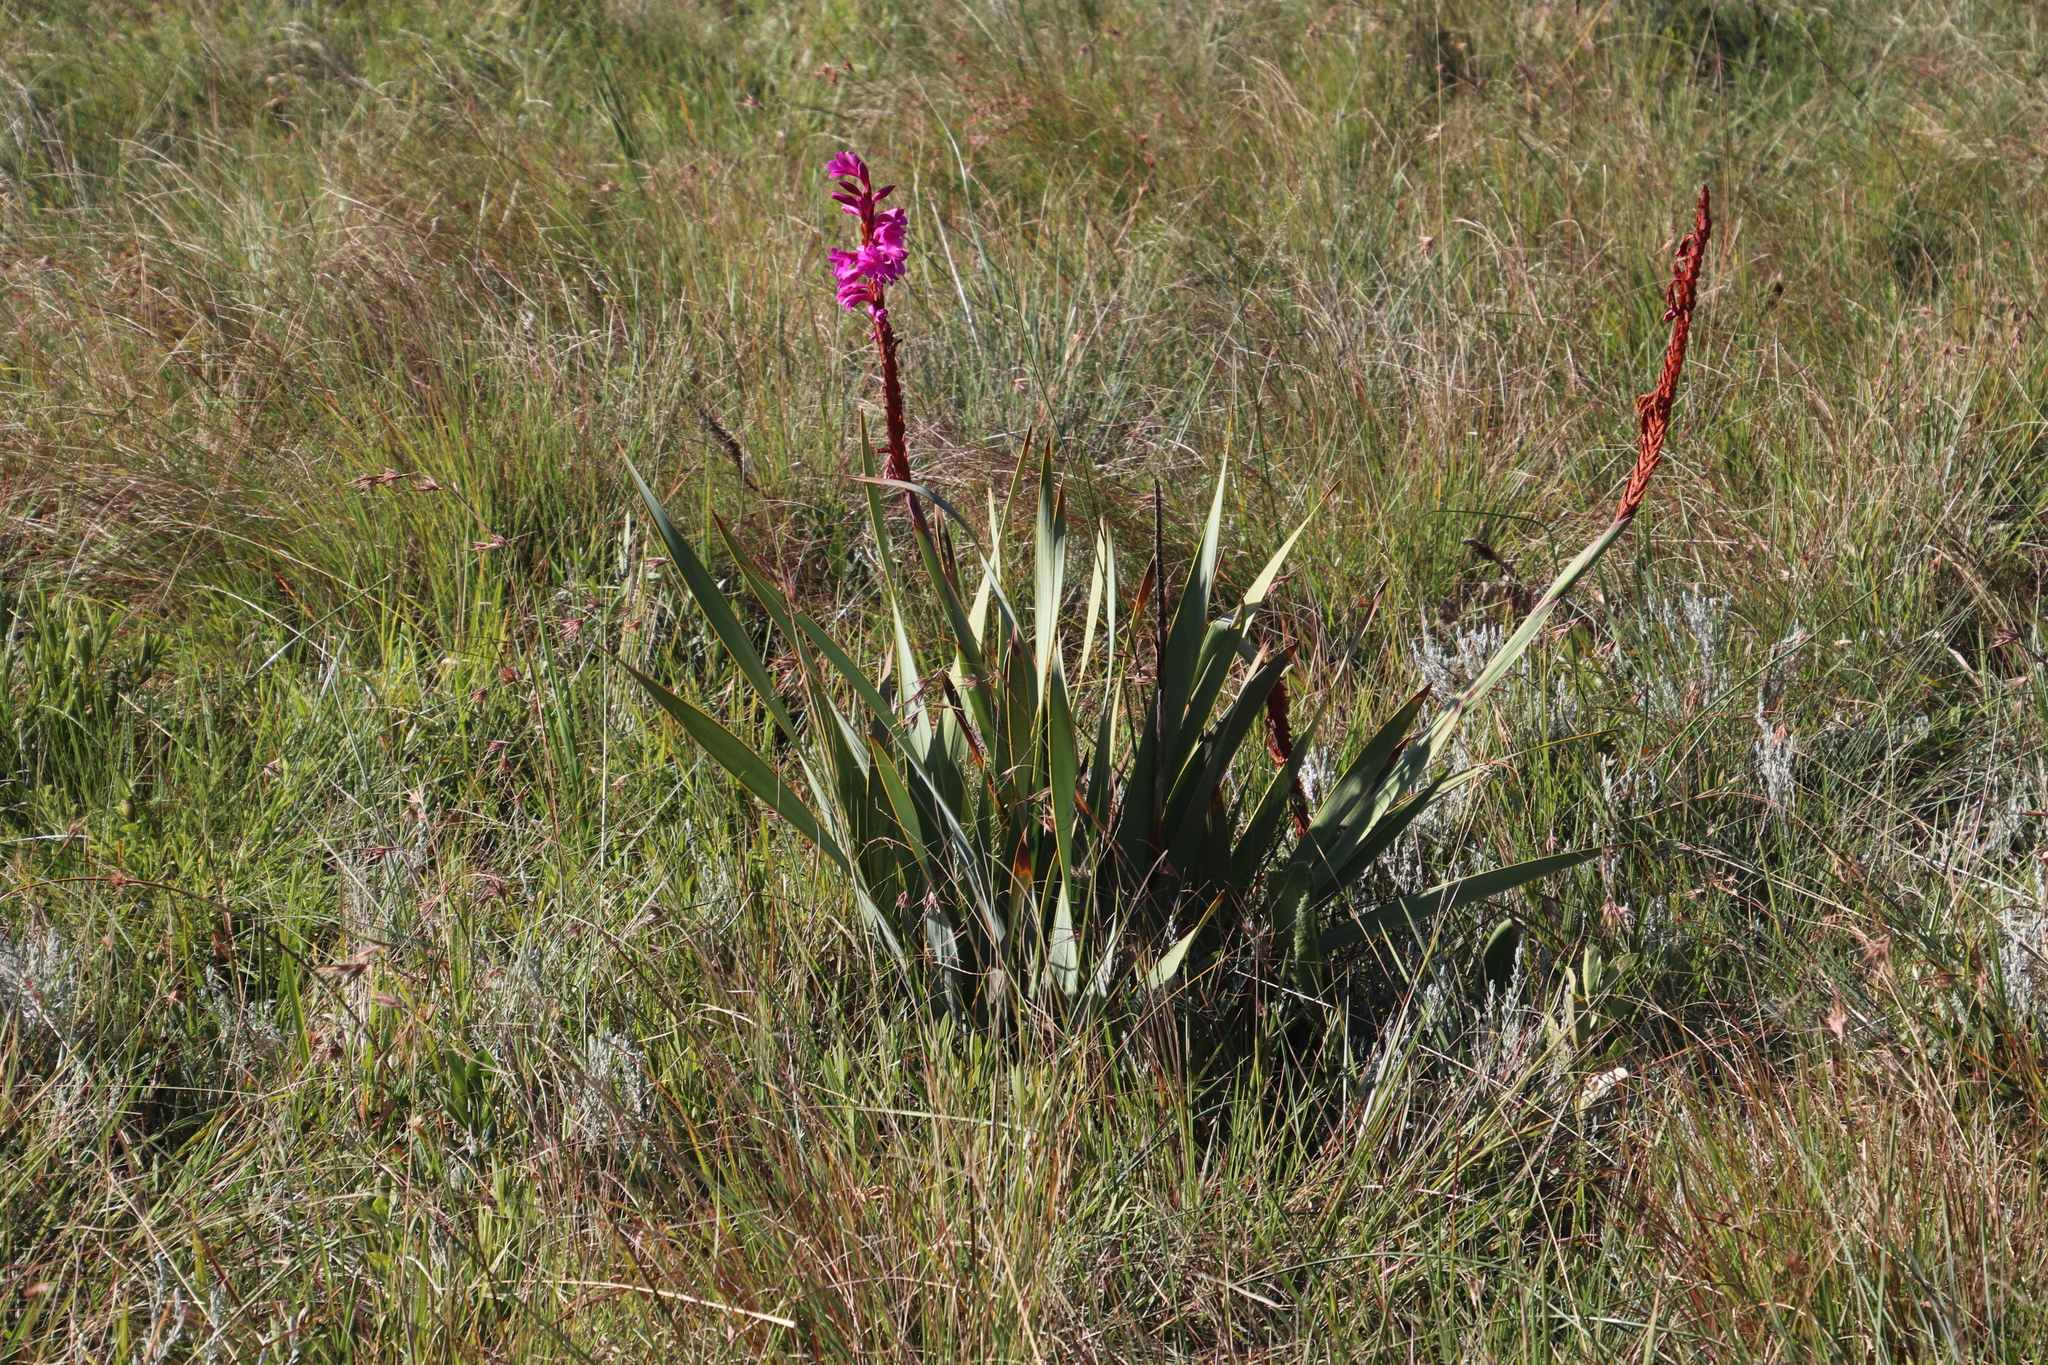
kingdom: Plantae
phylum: Tracheophyta
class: Liliopsida
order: Asparagales
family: Iridaceae
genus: Watsonia
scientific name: Watsonia pulchra
